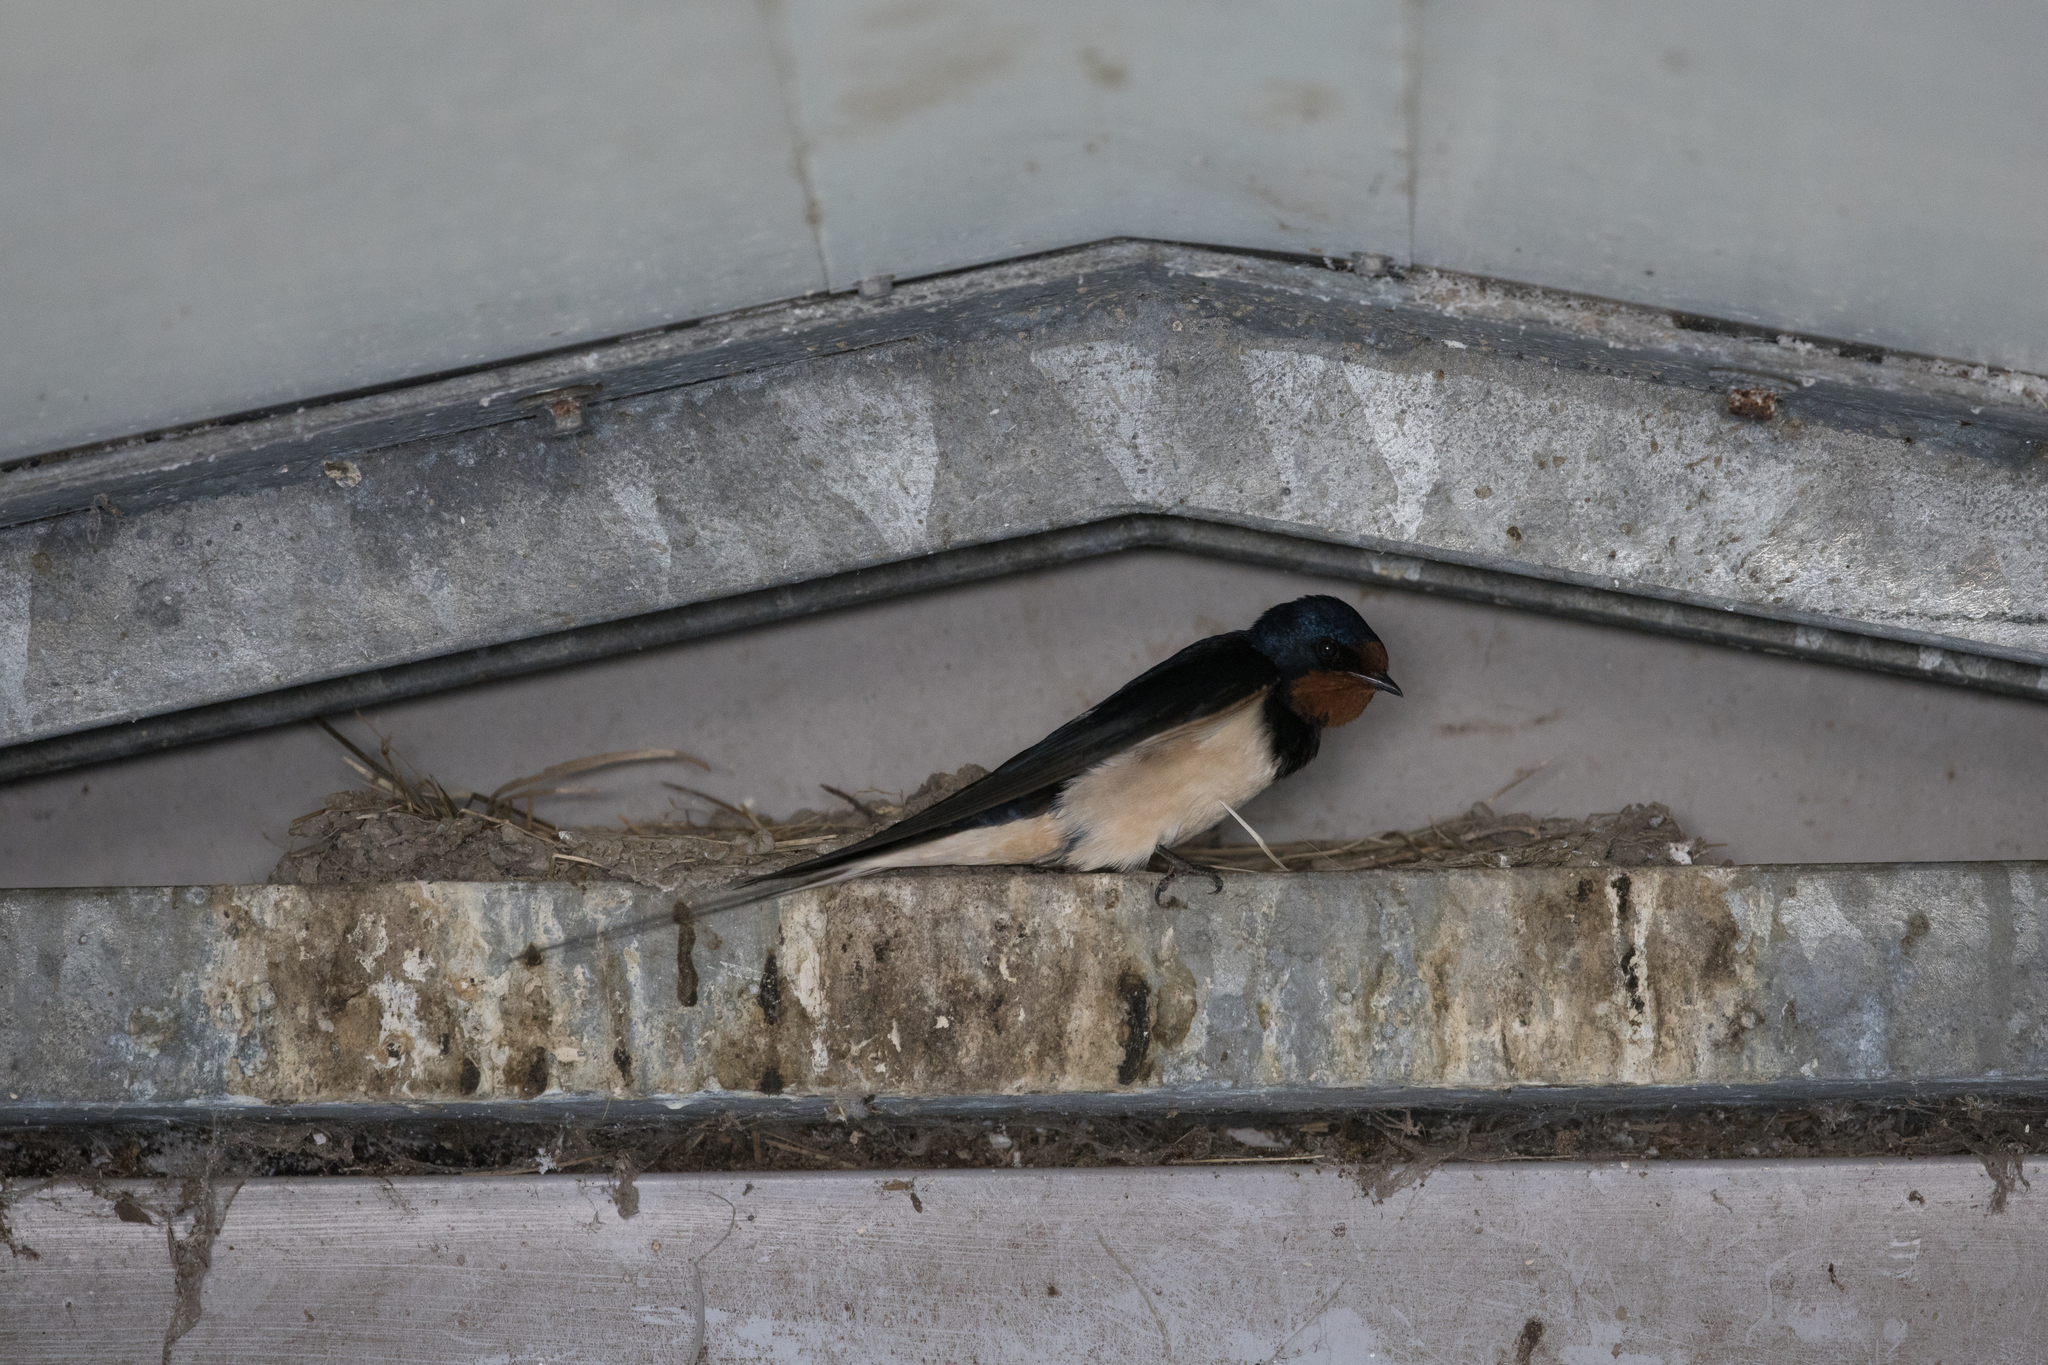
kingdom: Animalia
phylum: Chordata
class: Aves
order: Passeriformes
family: Hirundinidae
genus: Hirundo
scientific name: Hirundo rustica
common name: Barn swallow
